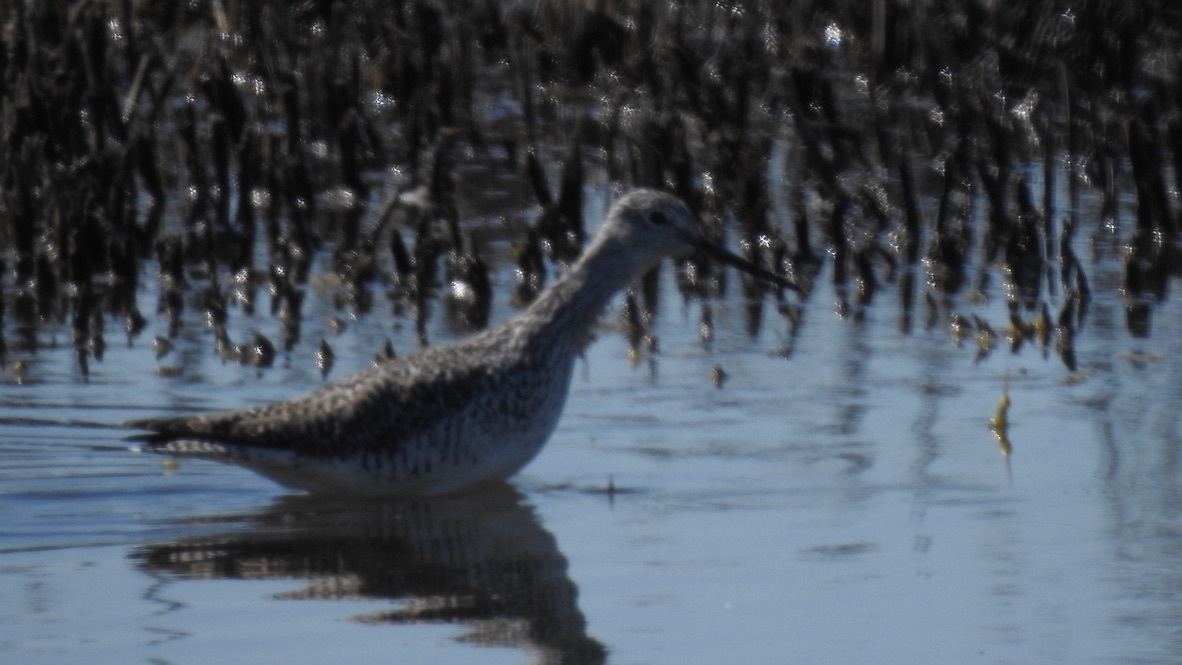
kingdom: Animalia
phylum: Chordata
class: Aves
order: Charadriiformes
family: Scolopacidae
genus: Tringa
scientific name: Tringa melanoleuca
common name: Greater yellowlegs
